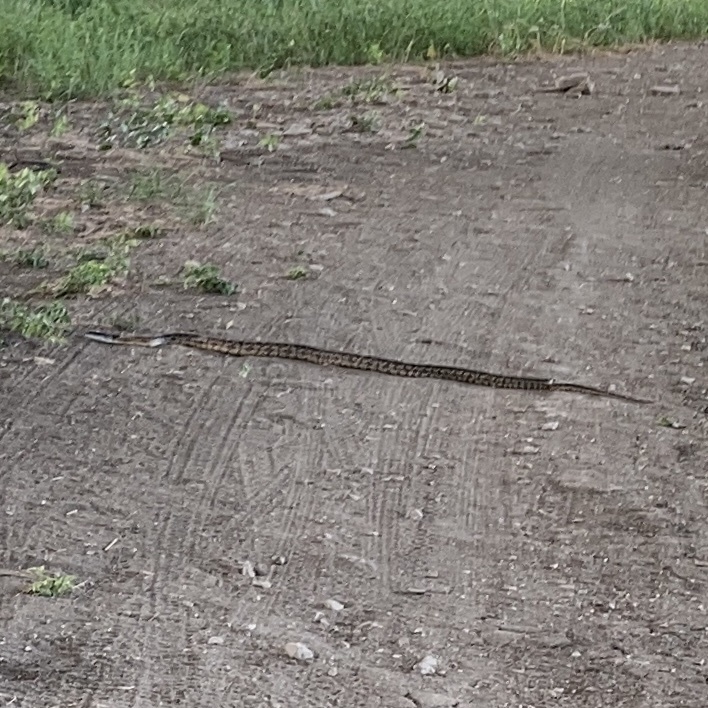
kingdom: Animalia
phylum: Chordata
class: Squamata
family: Colubridae
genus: Pantherophis
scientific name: Pantherophis obsoletus
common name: Black rat snake
